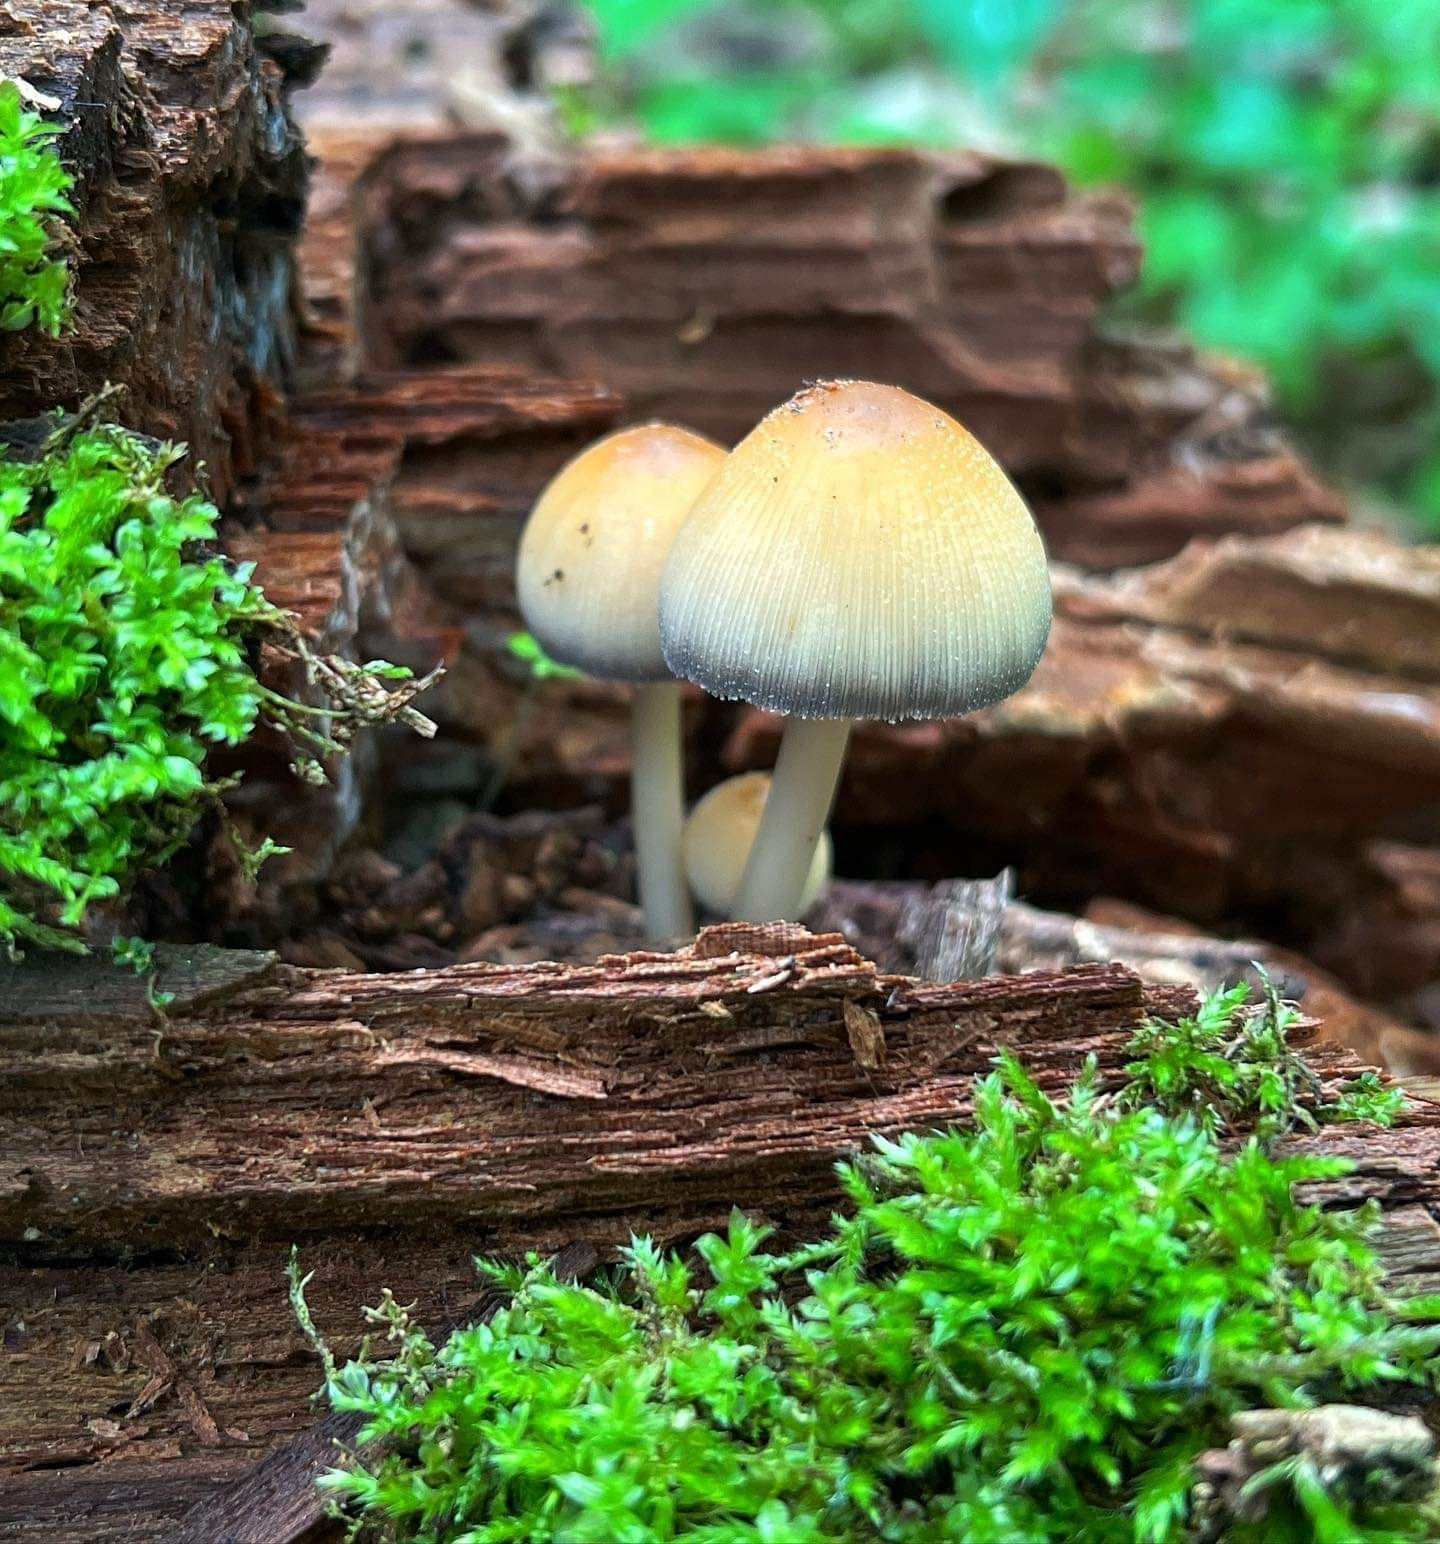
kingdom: Fungi
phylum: Basidiomycota
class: Agaricomycetes
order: Agaricales
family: Psathyrellaceae
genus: Coprinellus
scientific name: Coprinellus micaceus
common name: Glistening ink-cap
